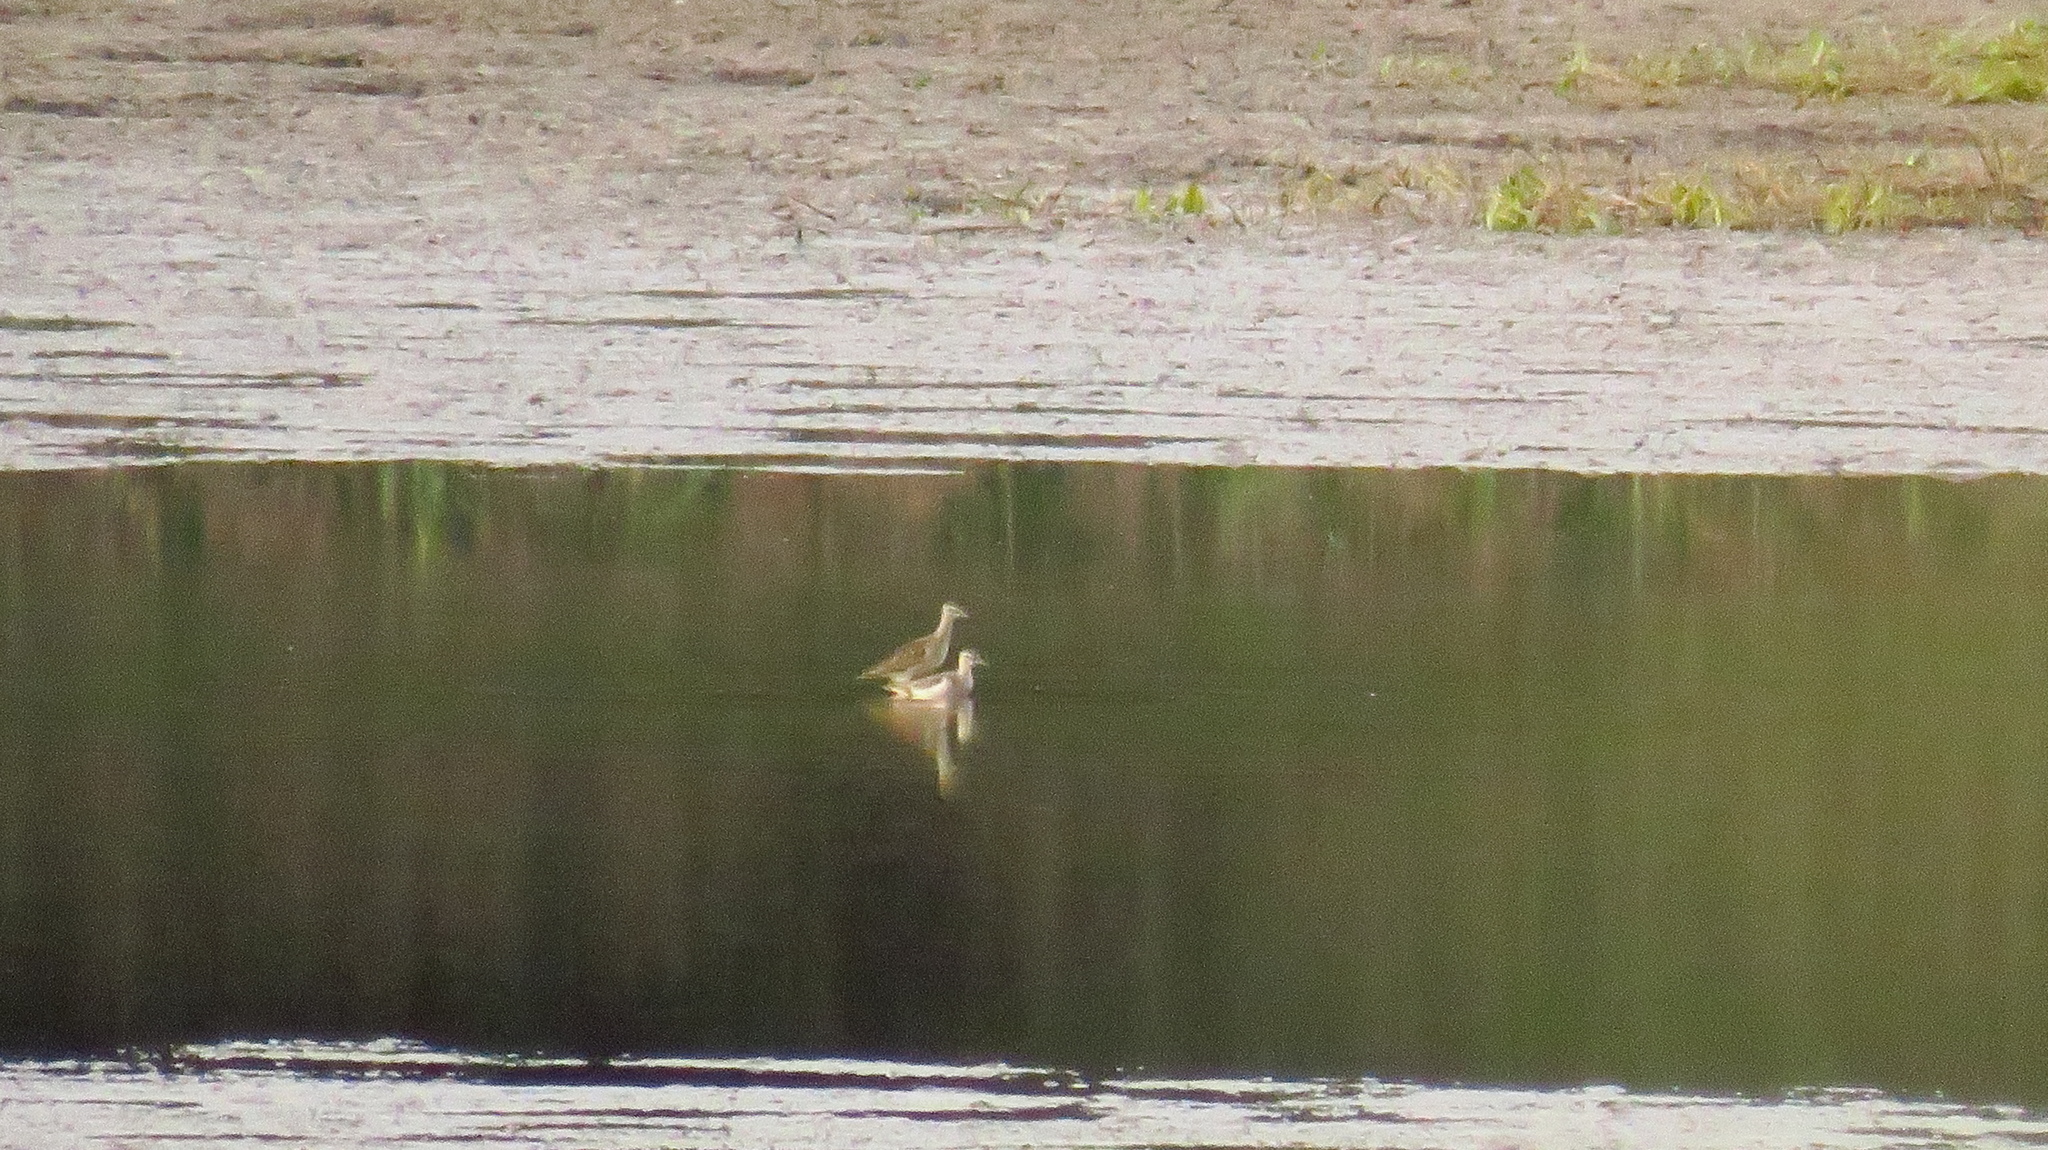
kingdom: Animalia
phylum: Chordata
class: Aves
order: Charadriiformes
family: Scolopacidae
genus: Tringa
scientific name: Tringa glareola
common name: Wood sandpiper
